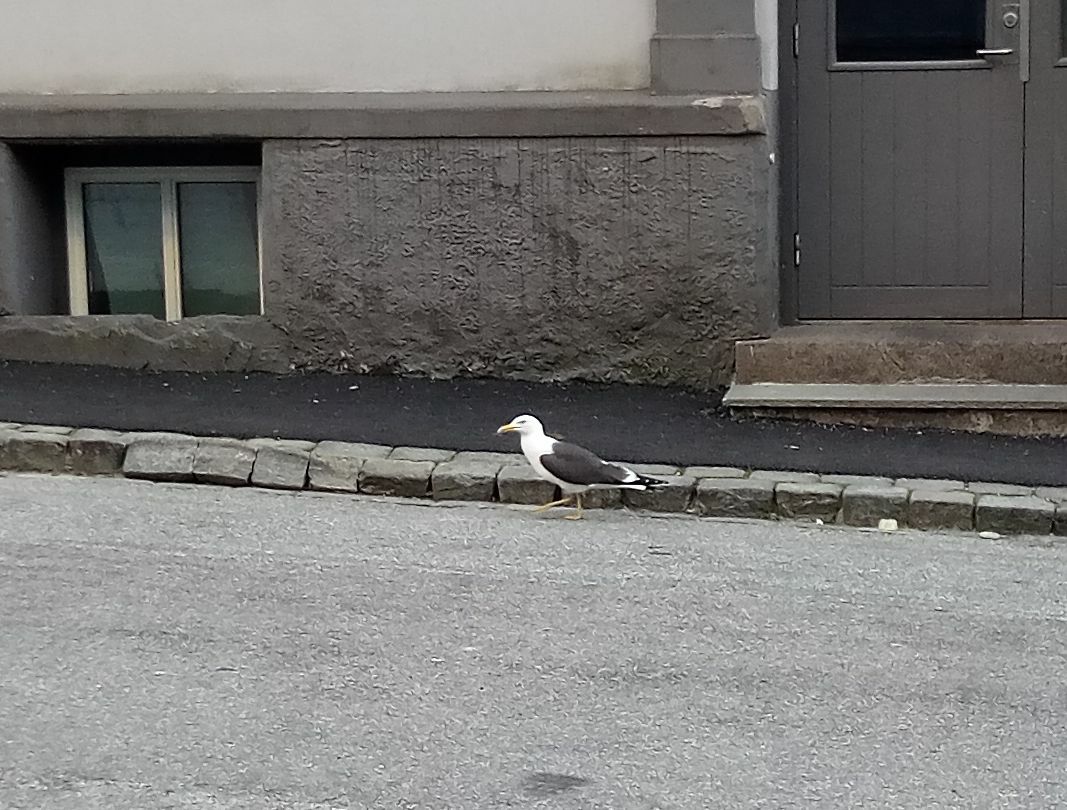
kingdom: Animalia
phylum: Chordata
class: Aves
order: Charadriiformes
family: Laridae
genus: Larus
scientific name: Larus fuscus
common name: Lesser black-backed gull
